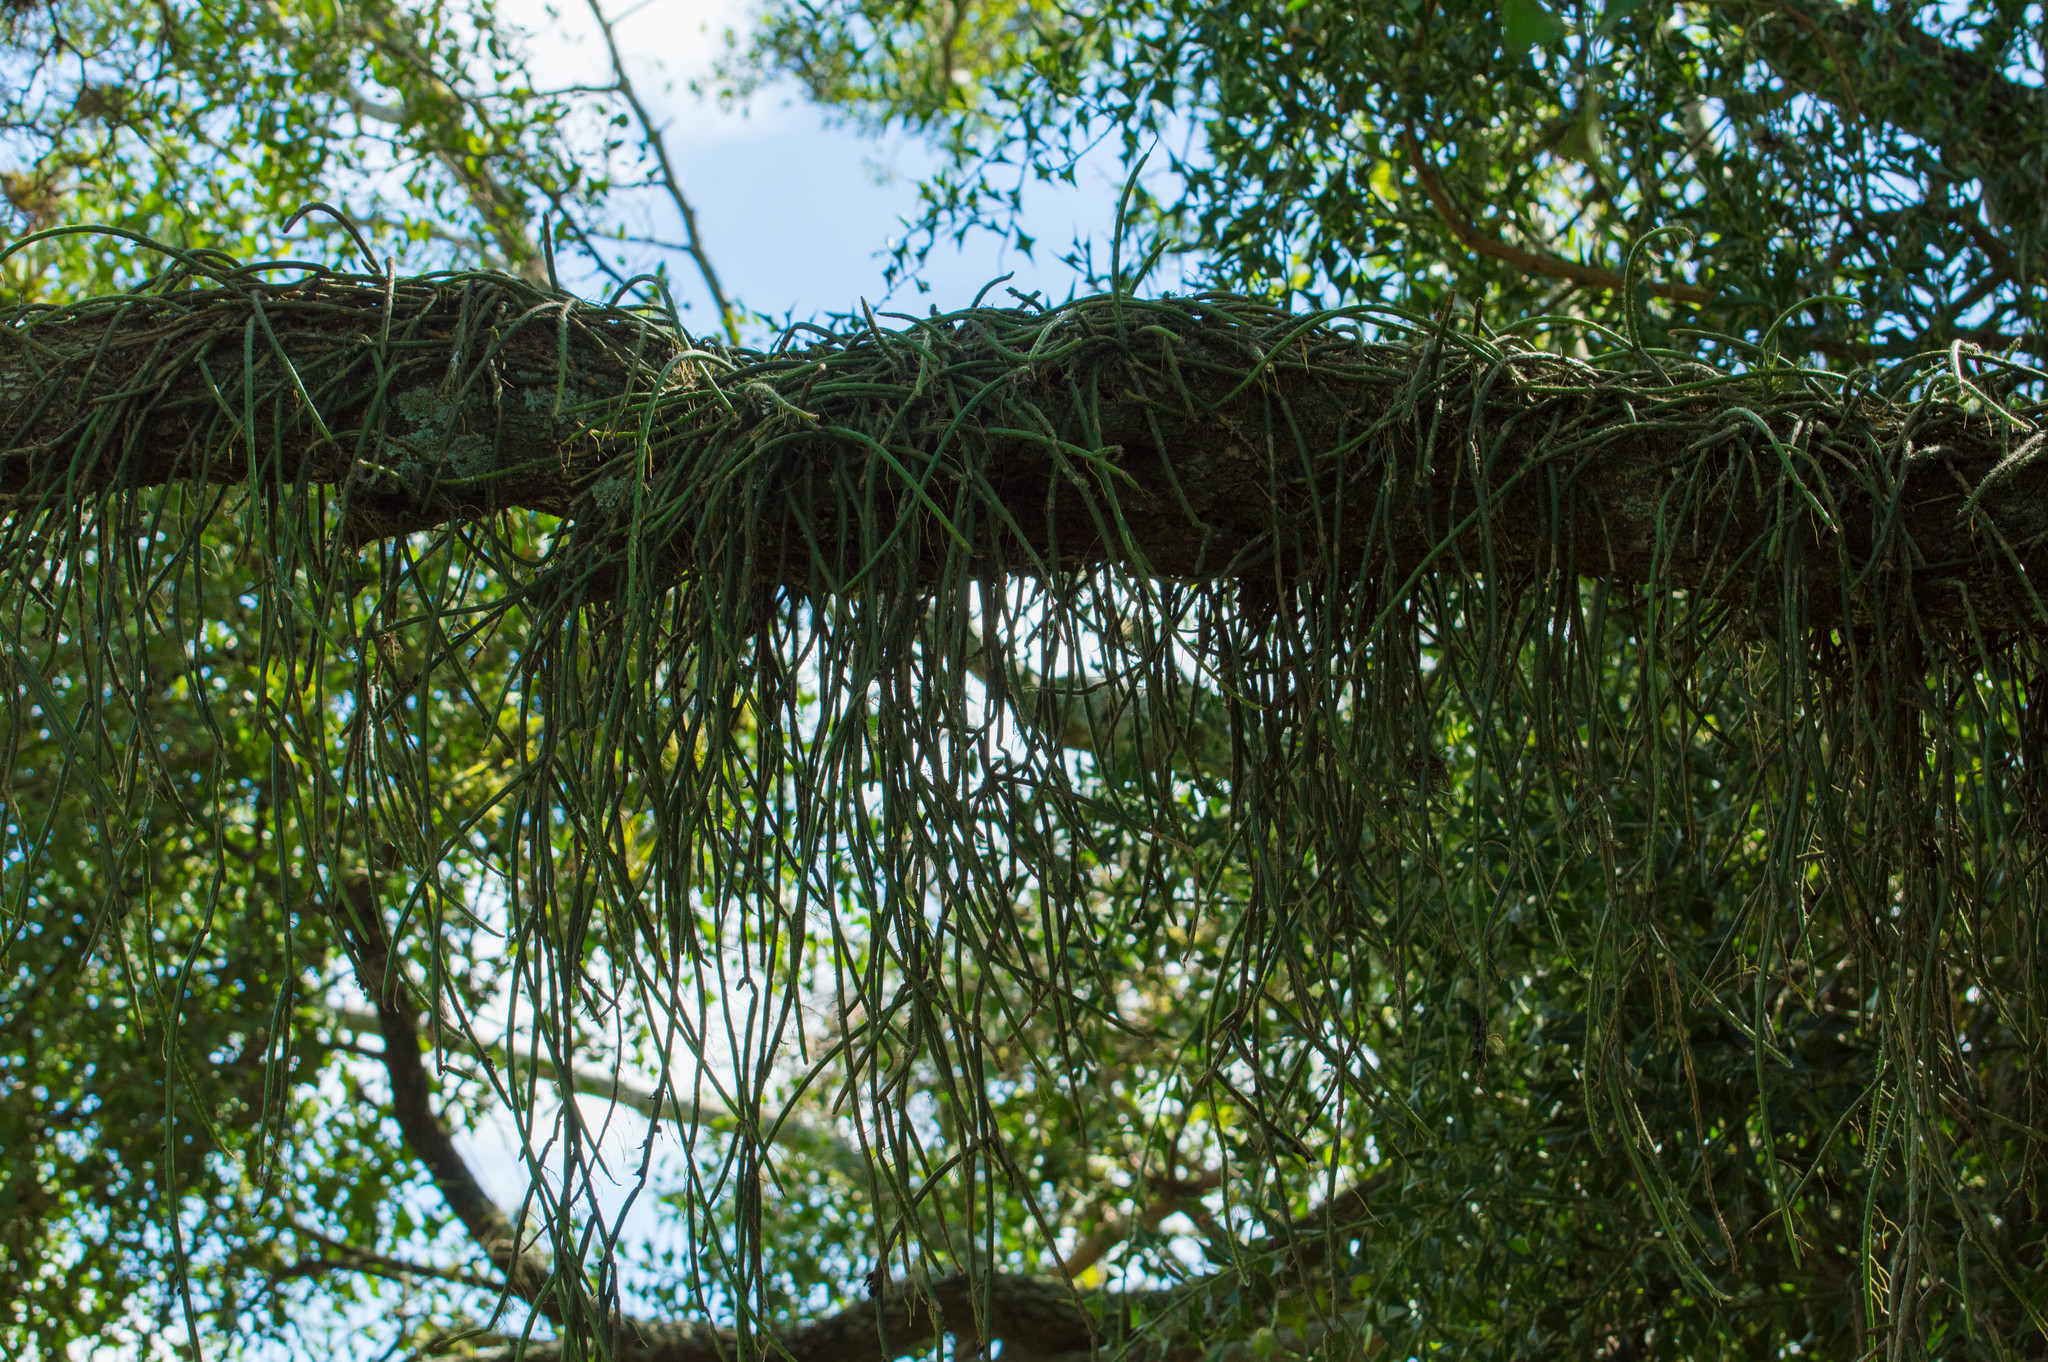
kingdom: Plantae
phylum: Tracheophyta
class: Magnoliopsida
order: Caryophyllales
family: Cactaceae
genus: Lepismium
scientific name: Lepismium lumbricoides
